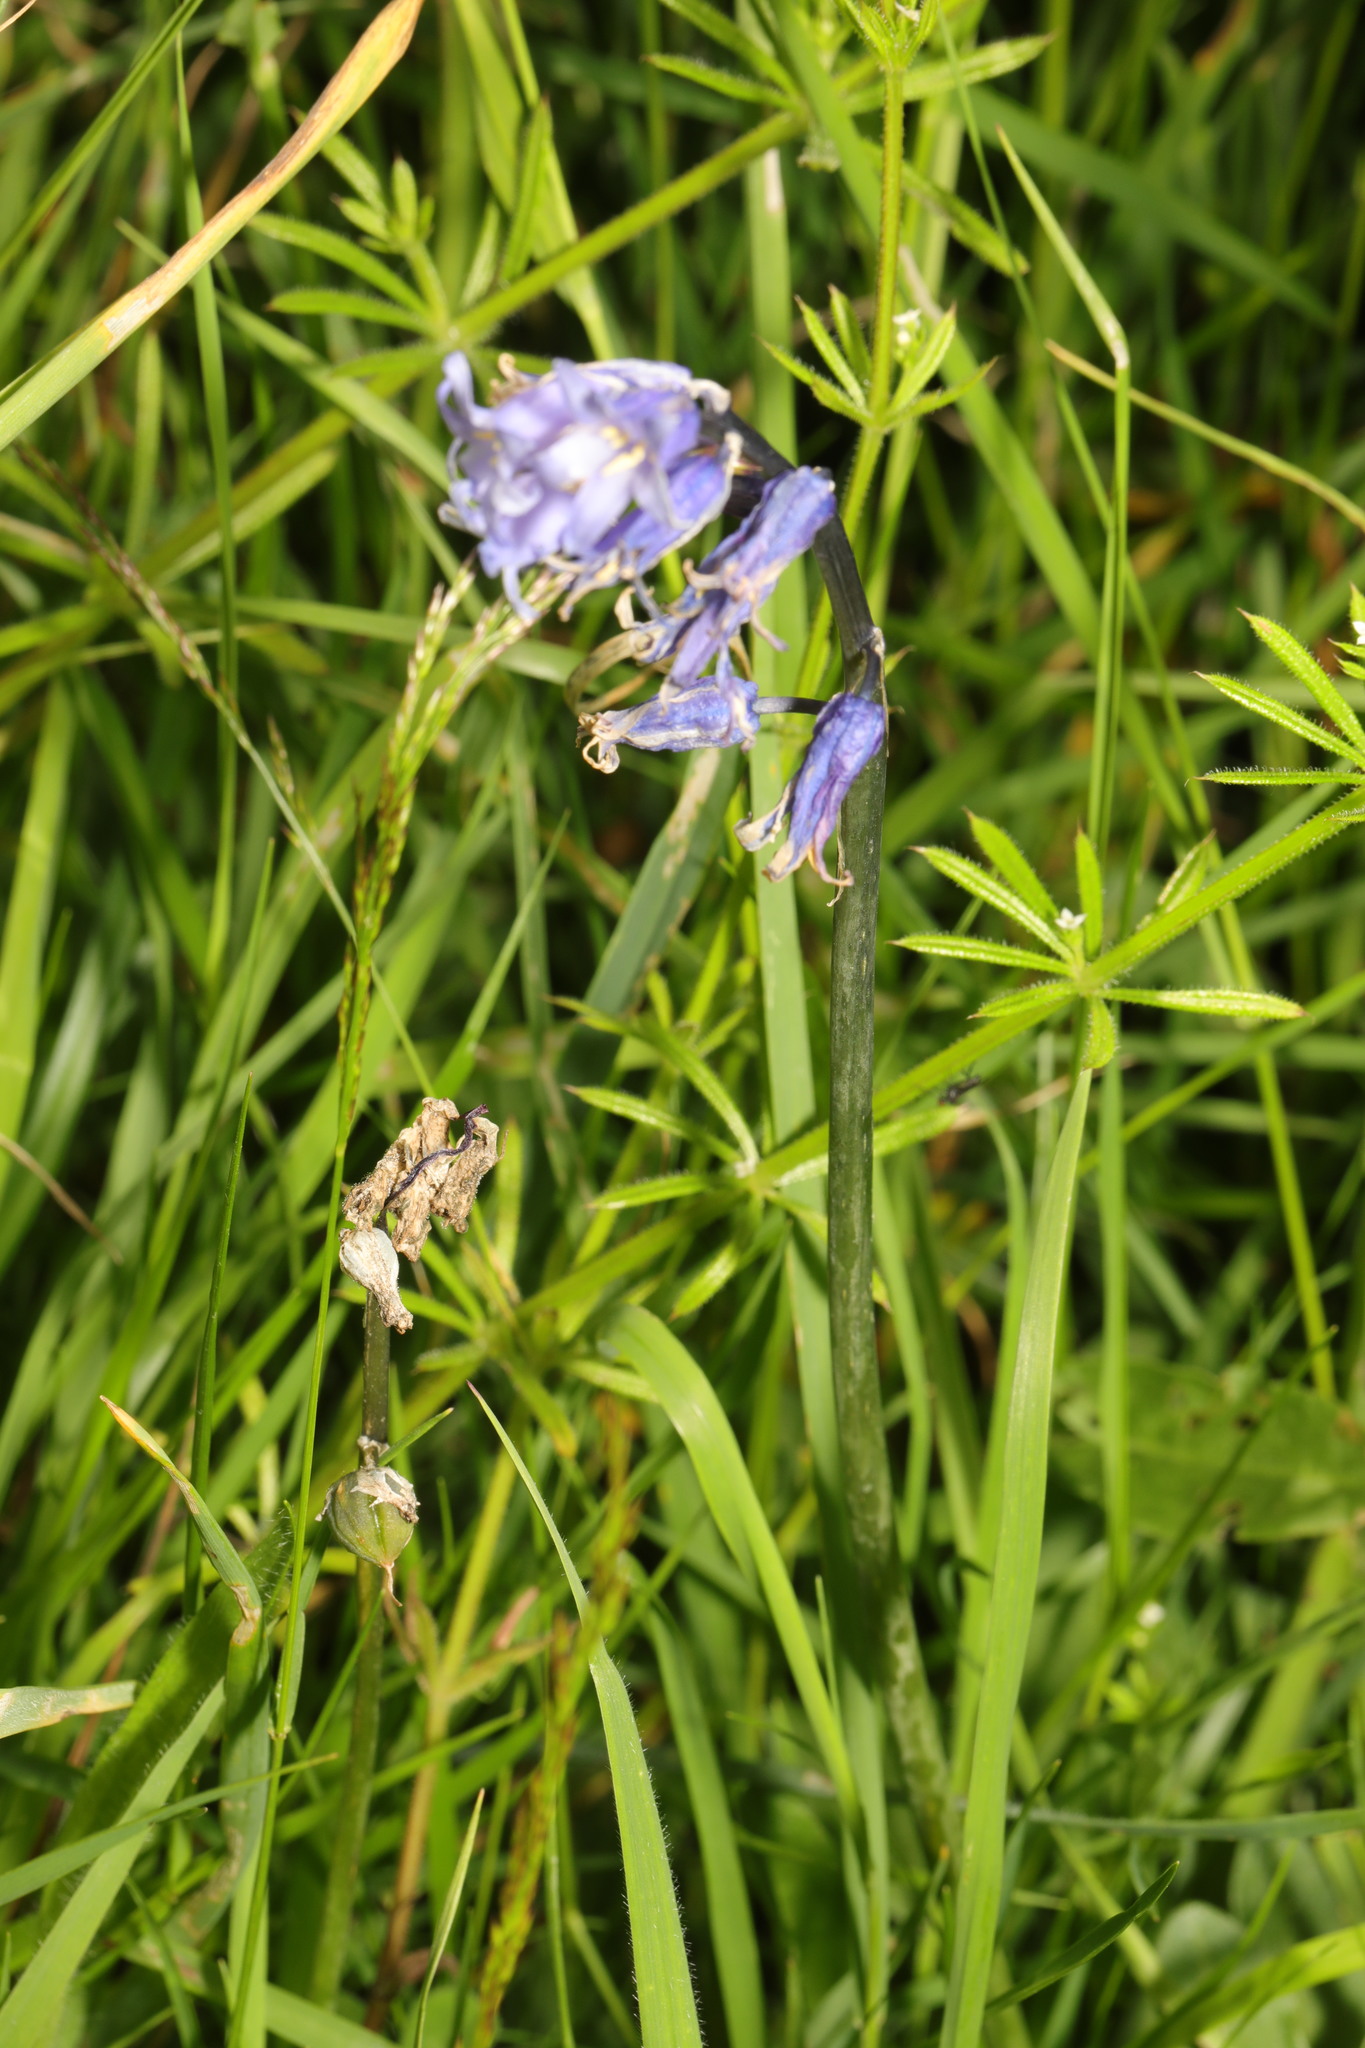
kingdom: Plantae
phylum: Tracheophyta
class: Liliopsida
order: Asparagales
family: Asparagaceae
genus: Hyacinthoides
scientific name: Hyacinthoides non-scripta
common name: Bluebell
